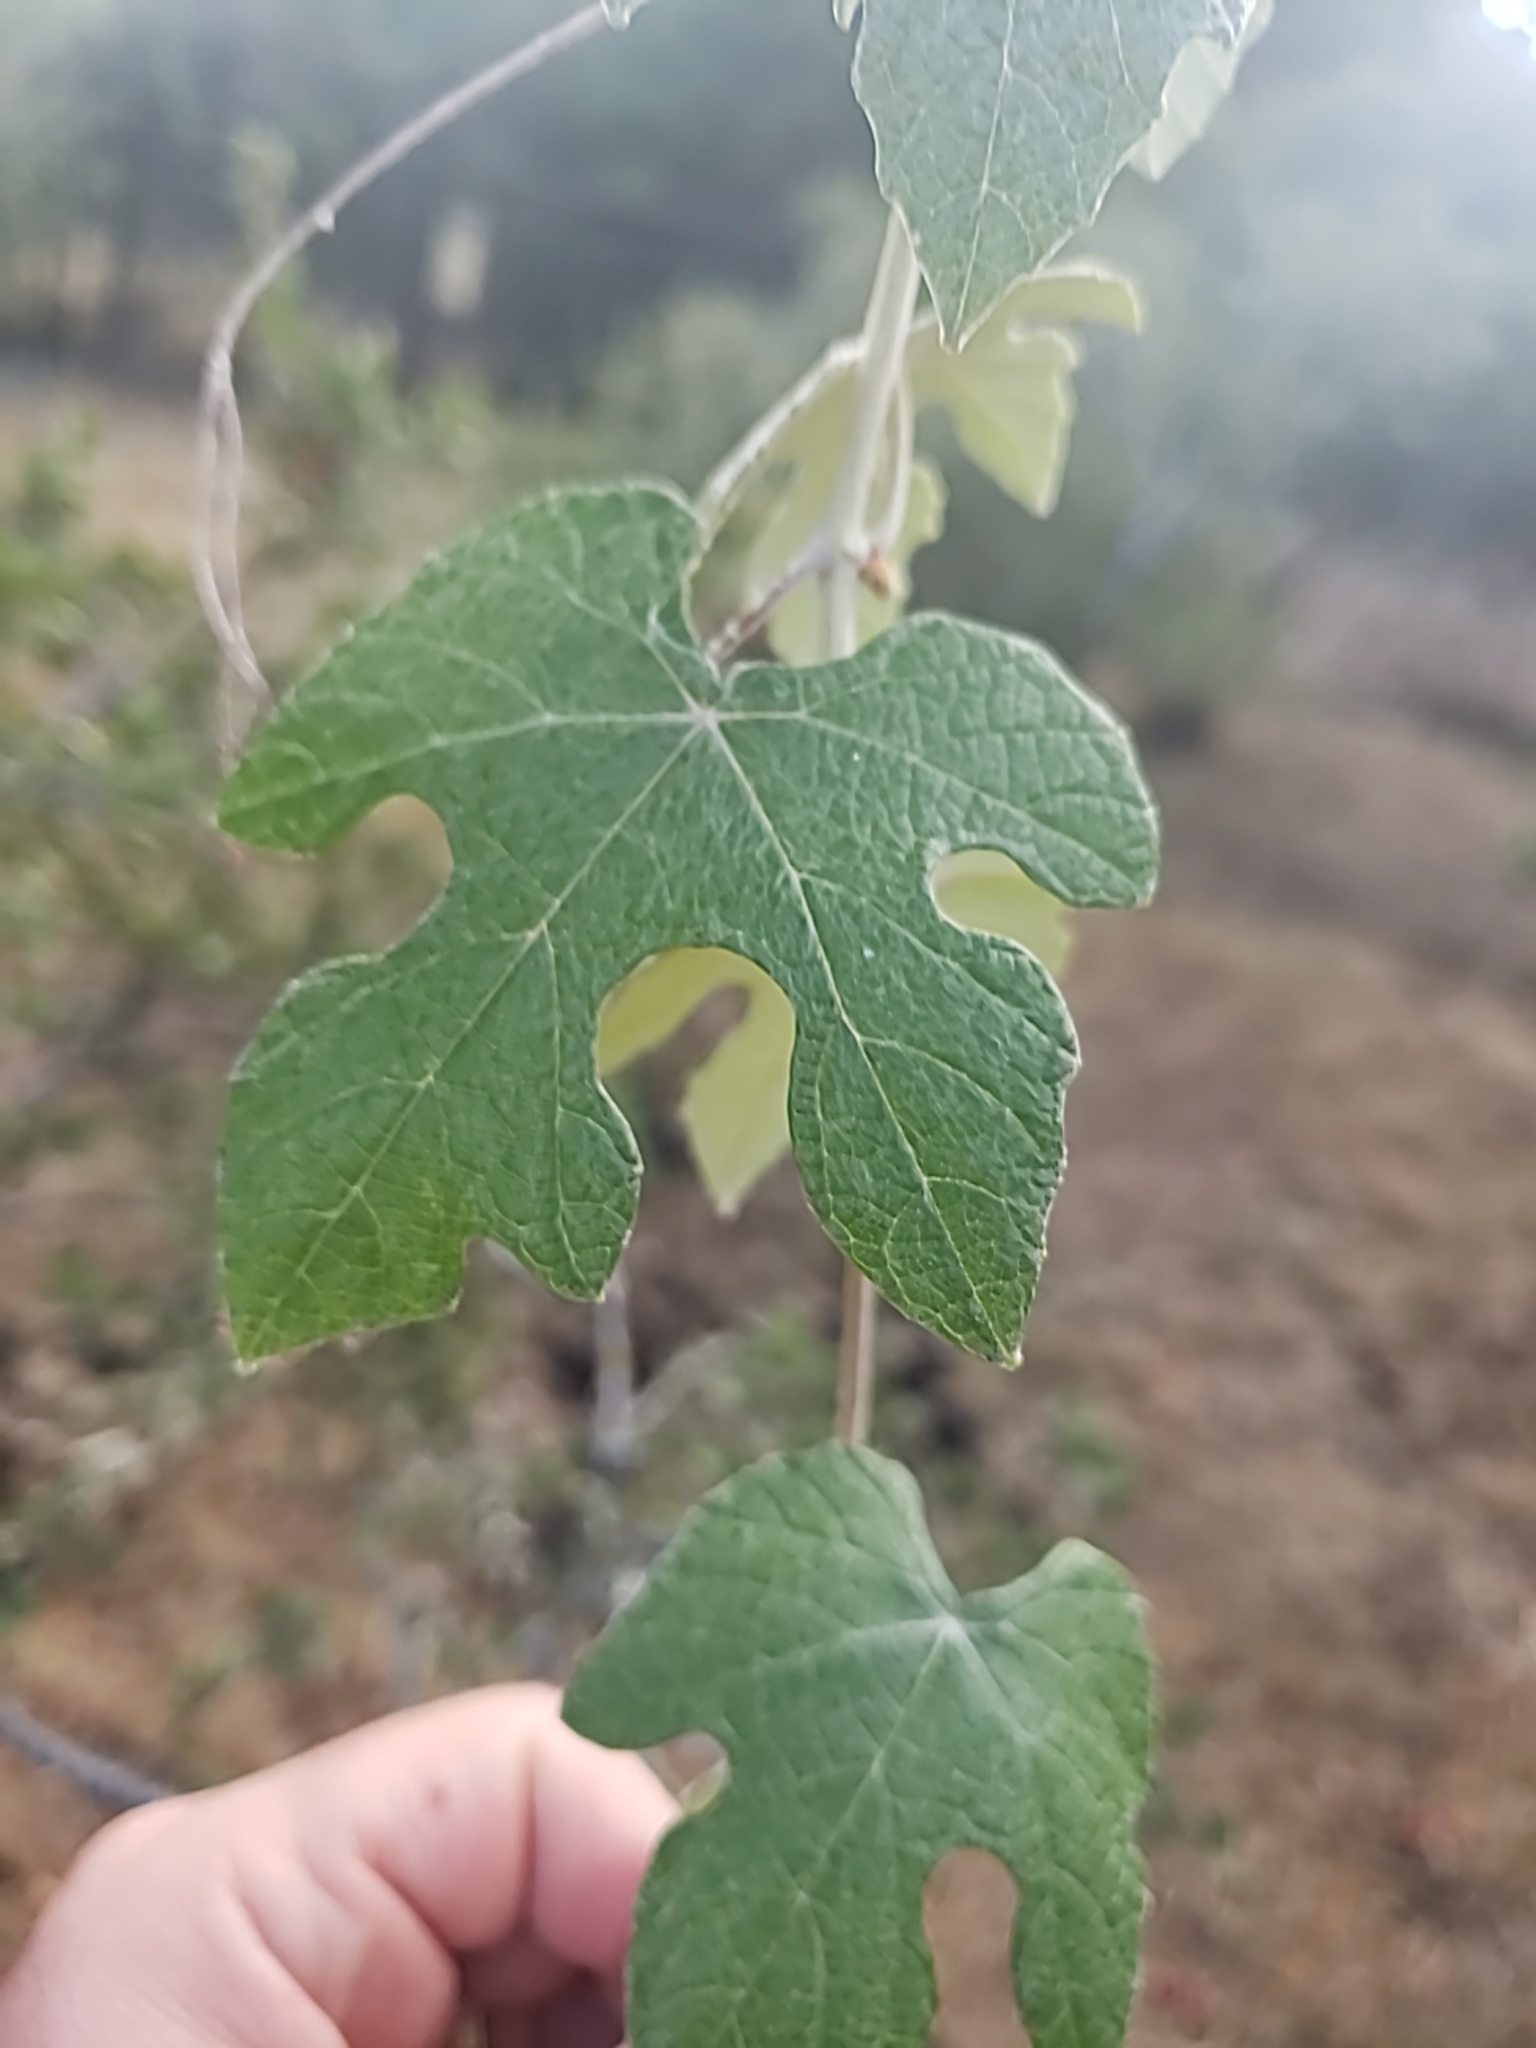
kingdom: Plantae
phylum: Tracheophyta
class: Magnoliopsida
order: Vitales
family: Vitaceae
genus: Vitis
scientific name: Vitis mustangensis
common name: Mustang grape
